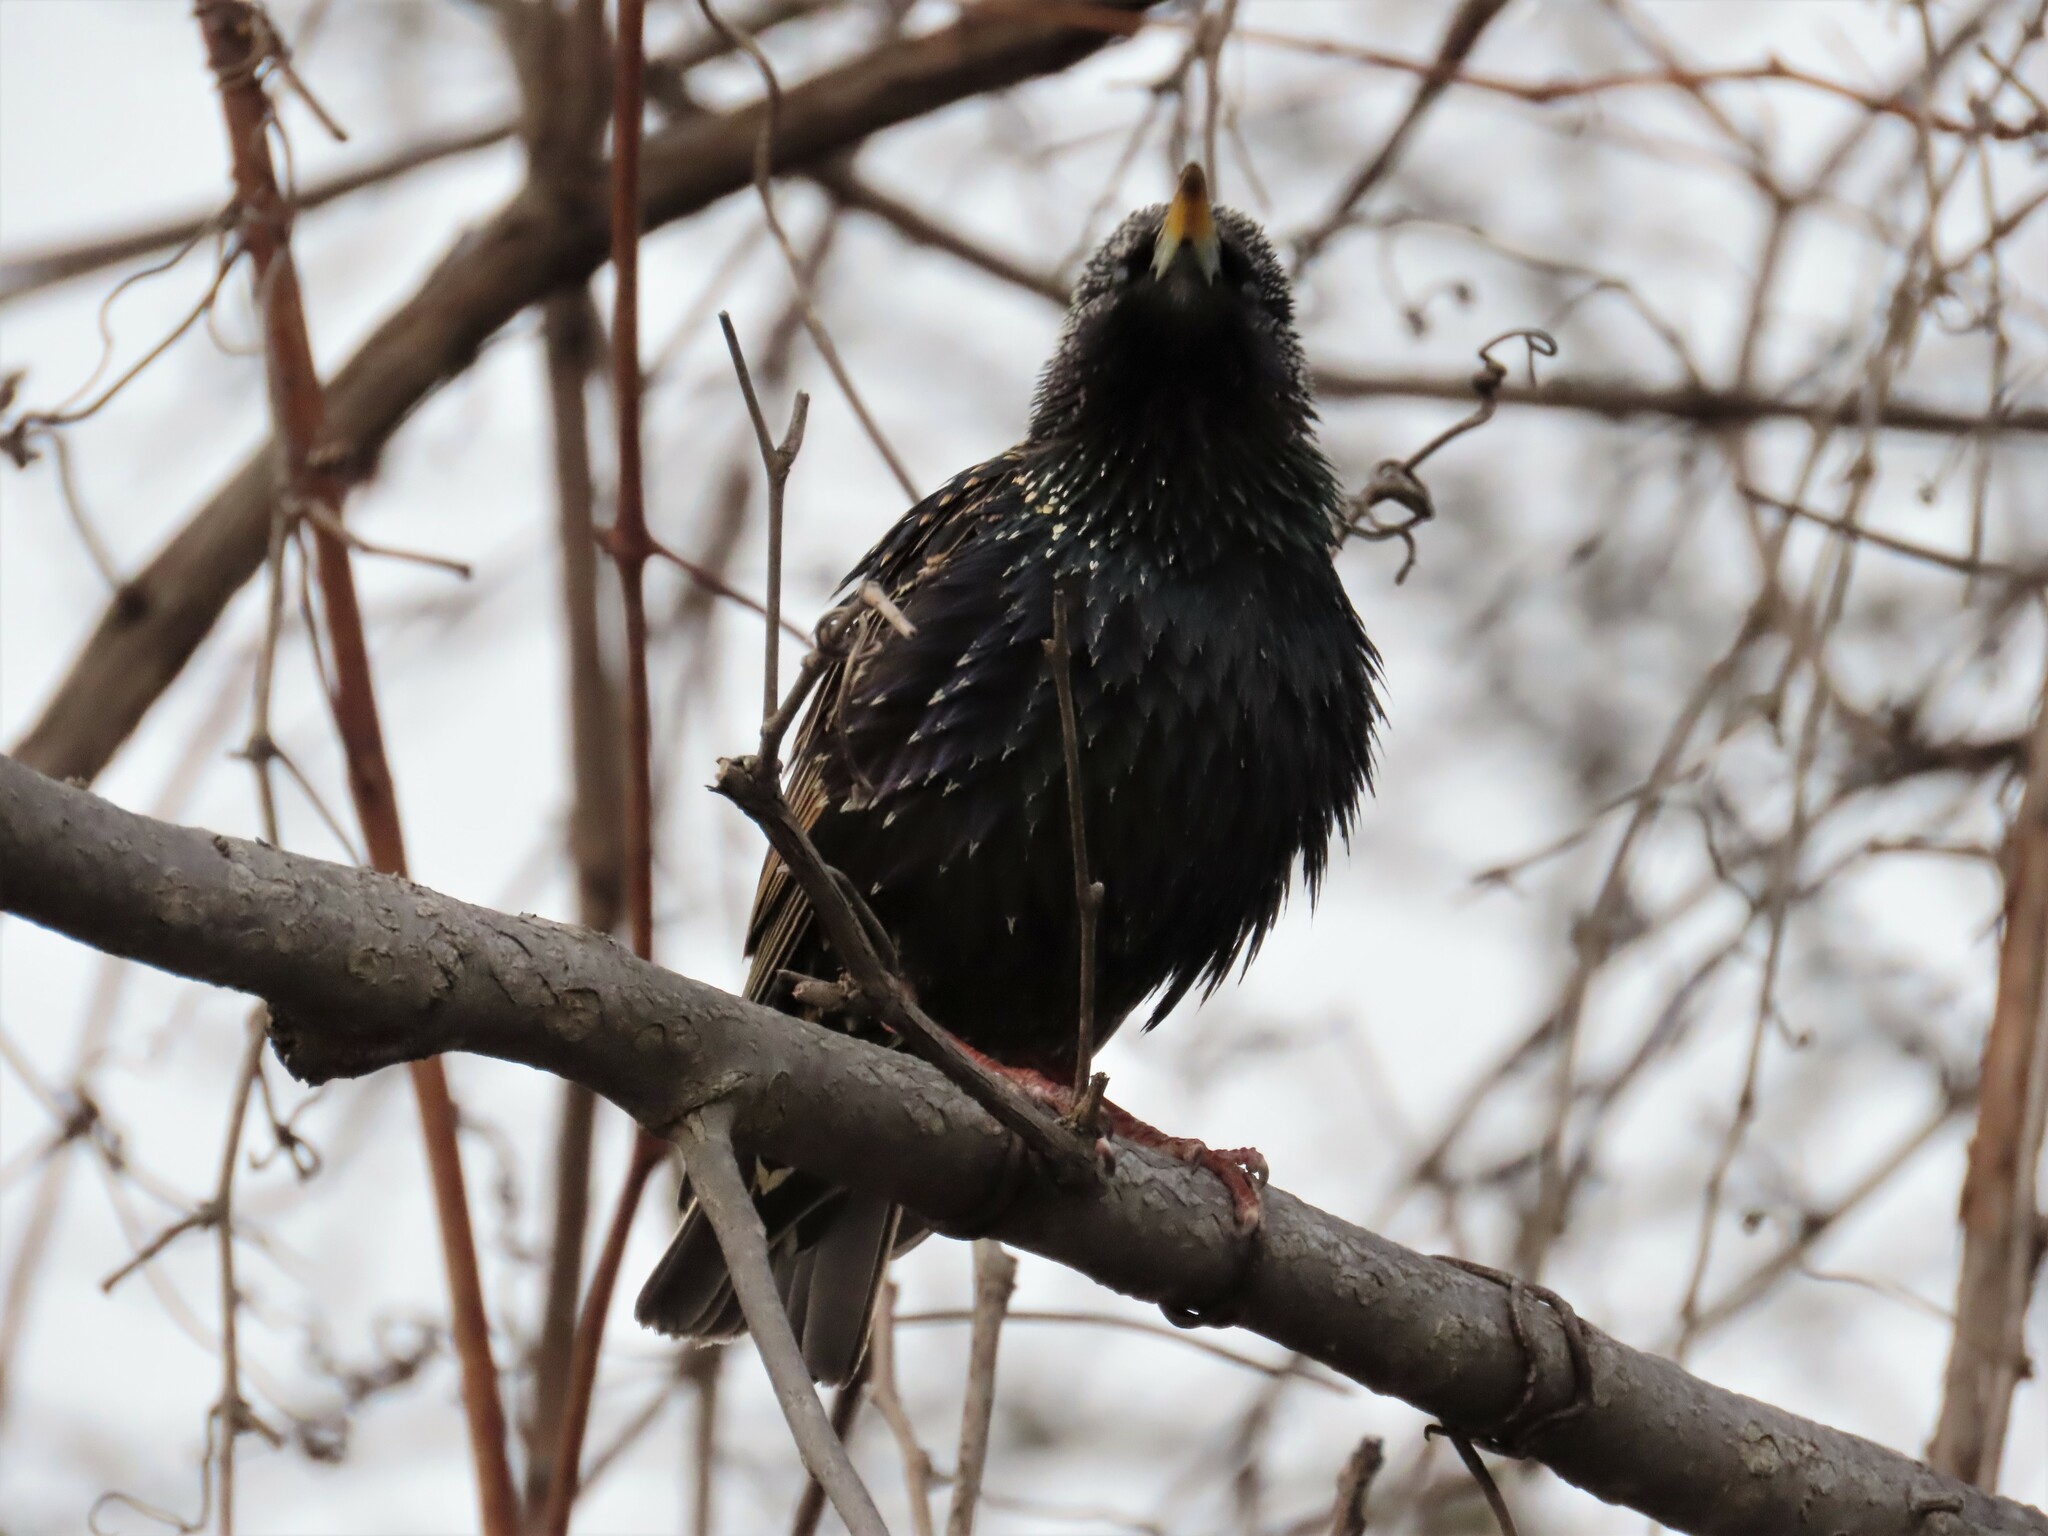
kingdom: Animalia
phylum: Chordata
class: Aves
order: Passeriformes
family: Sturnidae
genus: Sturnus
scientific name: Sturnus vulgaris
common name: Common starling
